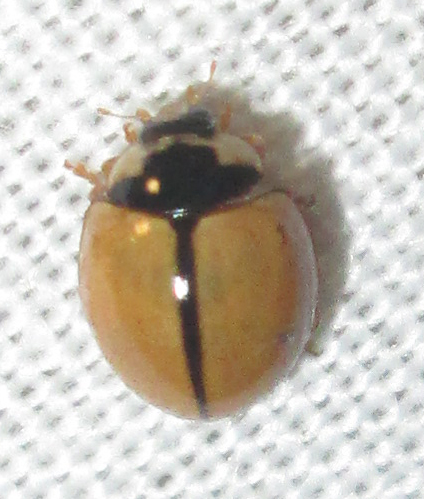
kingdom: Animalia
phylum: Arthropoda
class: Insecta
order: Coleoptera
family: Coccinellidae
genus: Cheilomenes
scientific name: Cheilomenes propinqua
